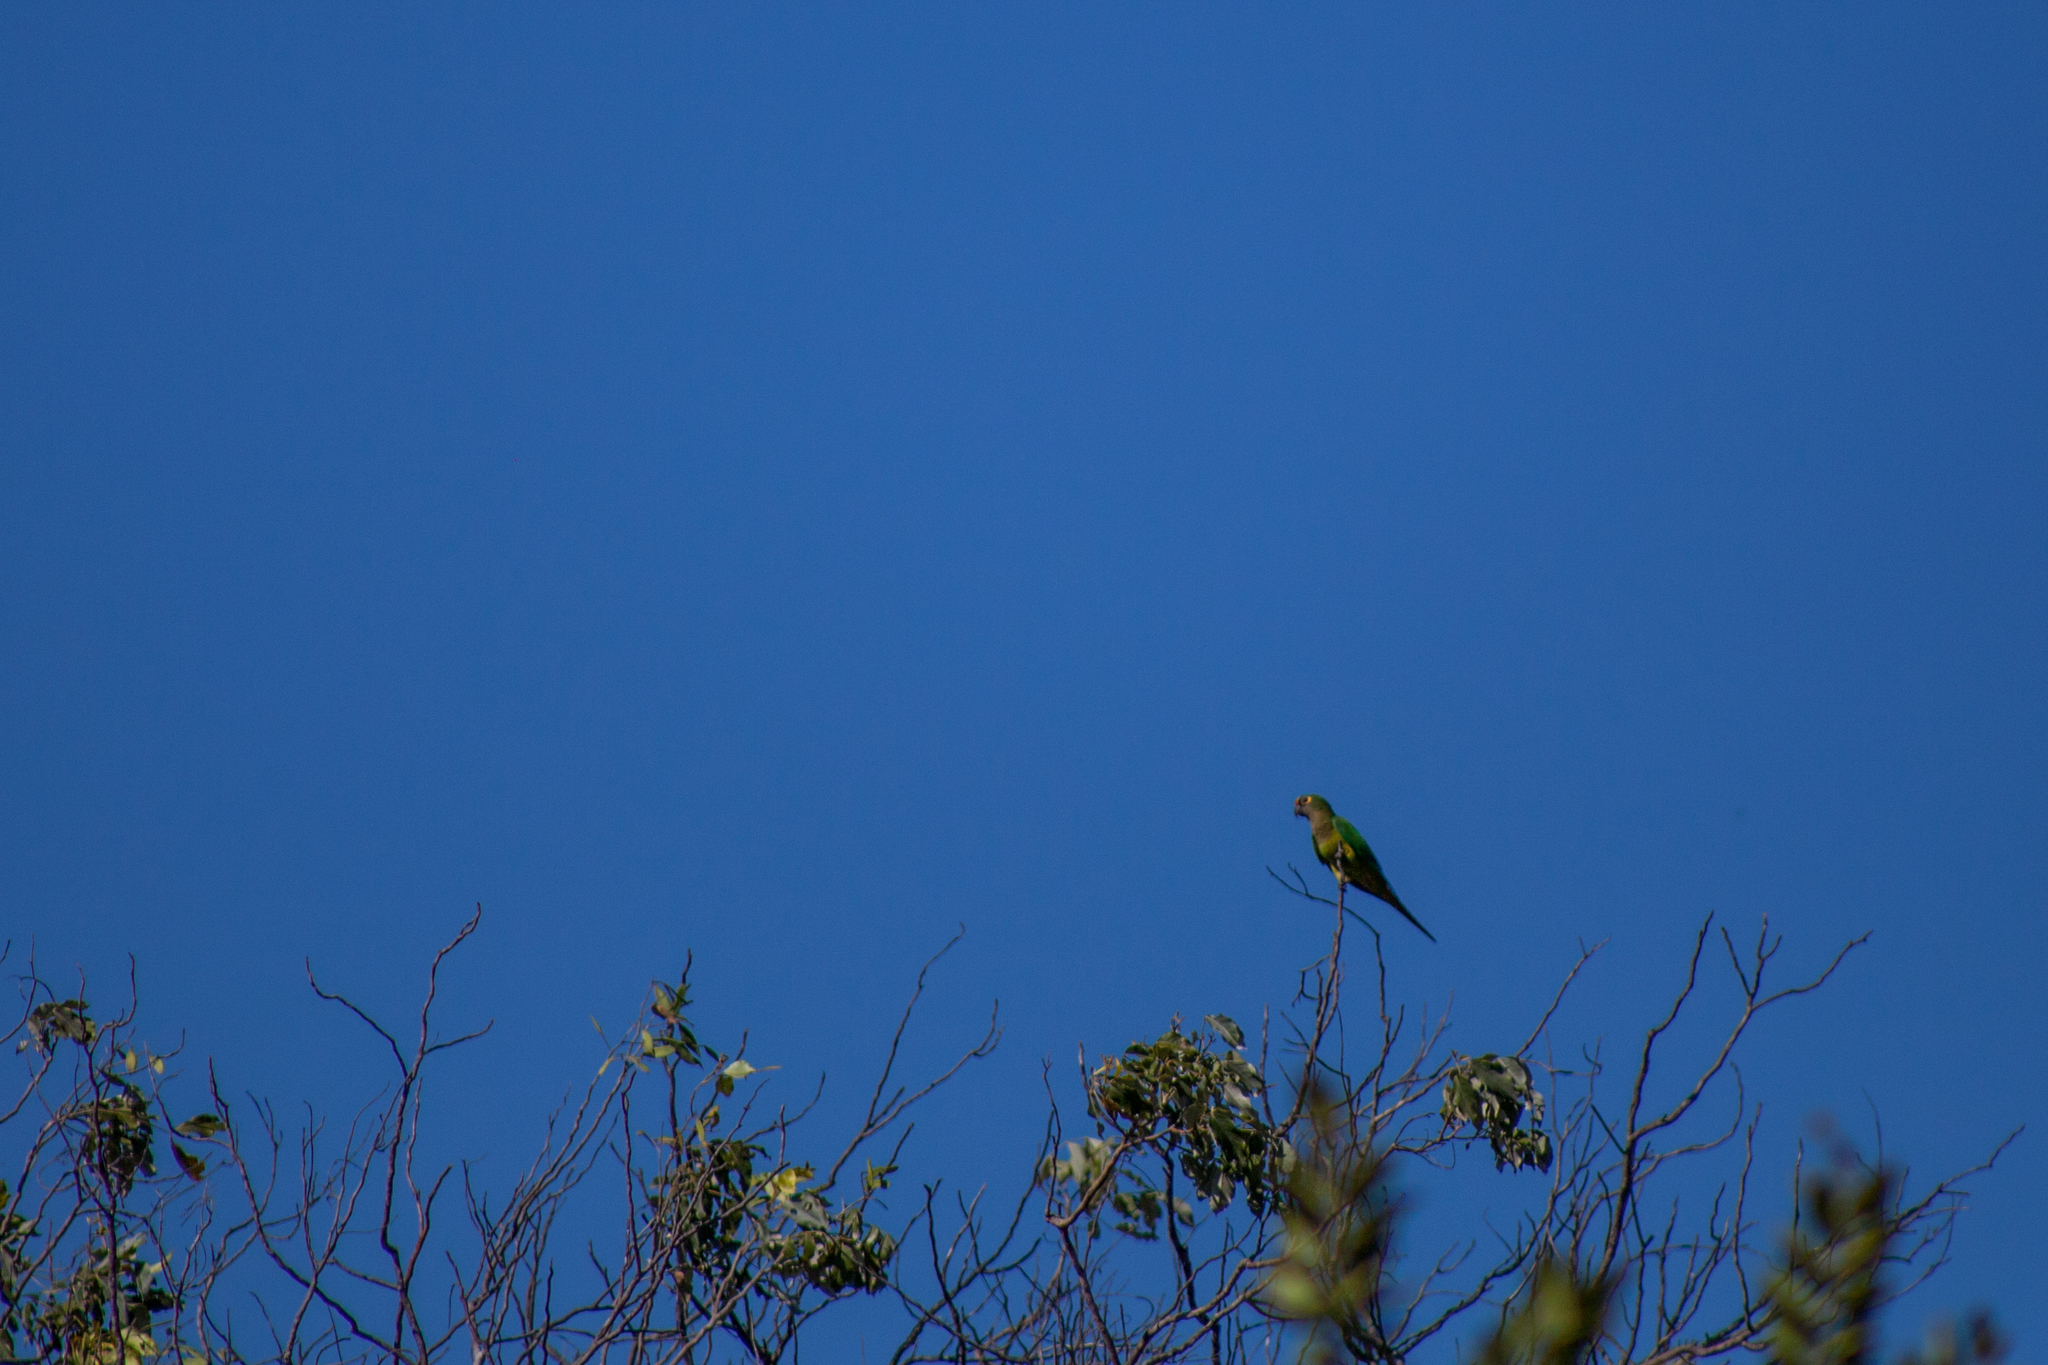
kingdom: Animalia
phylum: Chordata
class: Aves
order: Psittaciformes
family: Psittacidae
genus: Aratinga
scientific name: Aratinga aurea
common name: Peach-fronted parakeet
